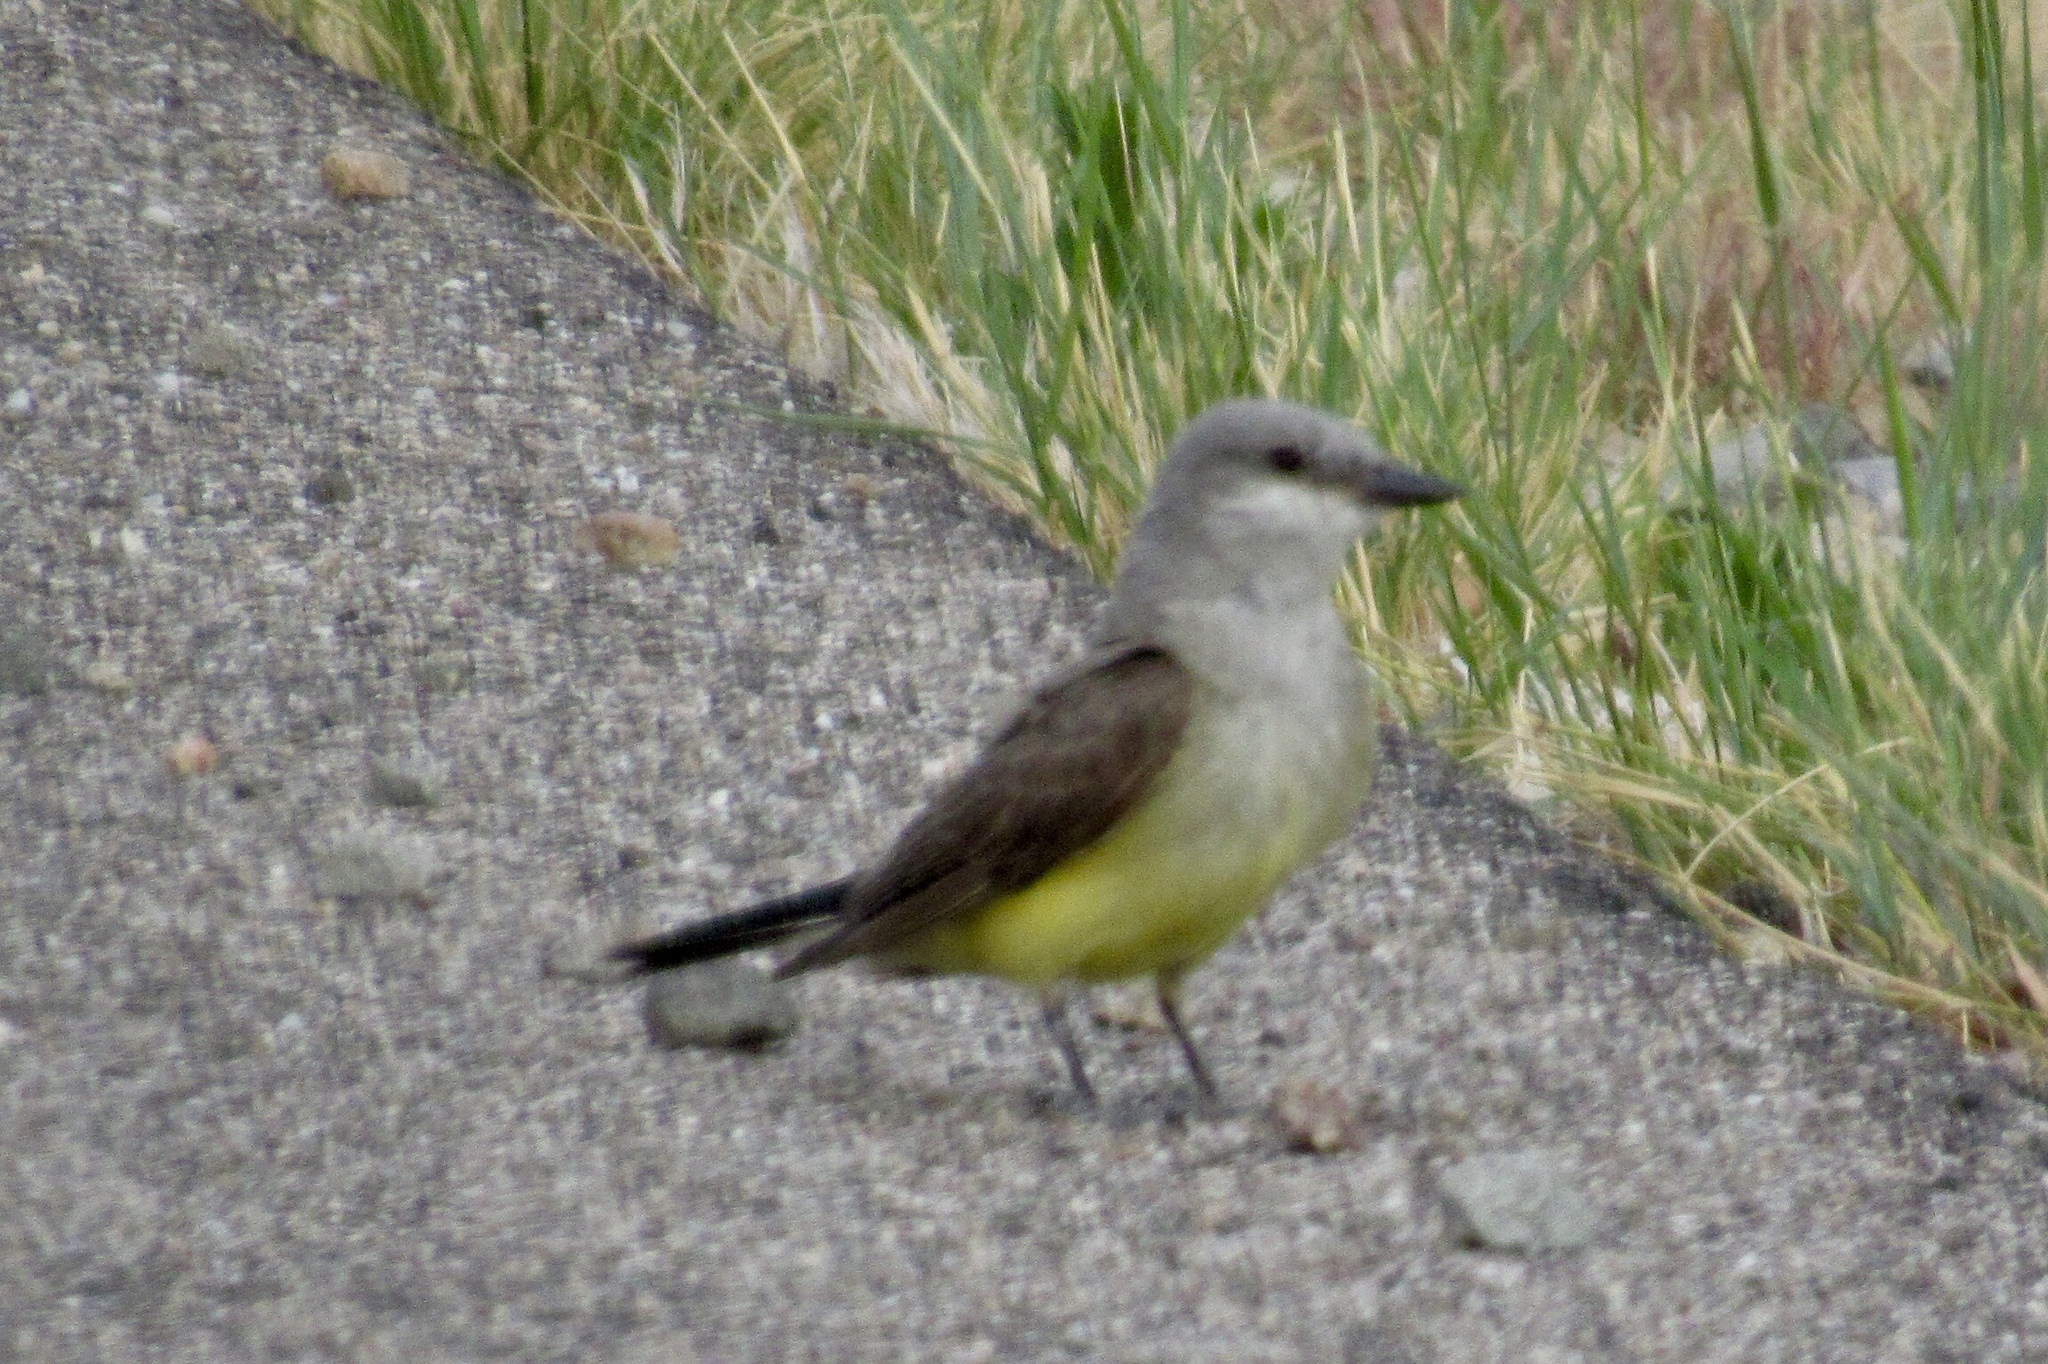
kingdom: Animalia
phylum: Chordata
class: Aves
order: Passeriformes
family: Tyrannidae
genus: Tyrannus
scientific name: Tyrannus verticalis
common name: Western kingbird
